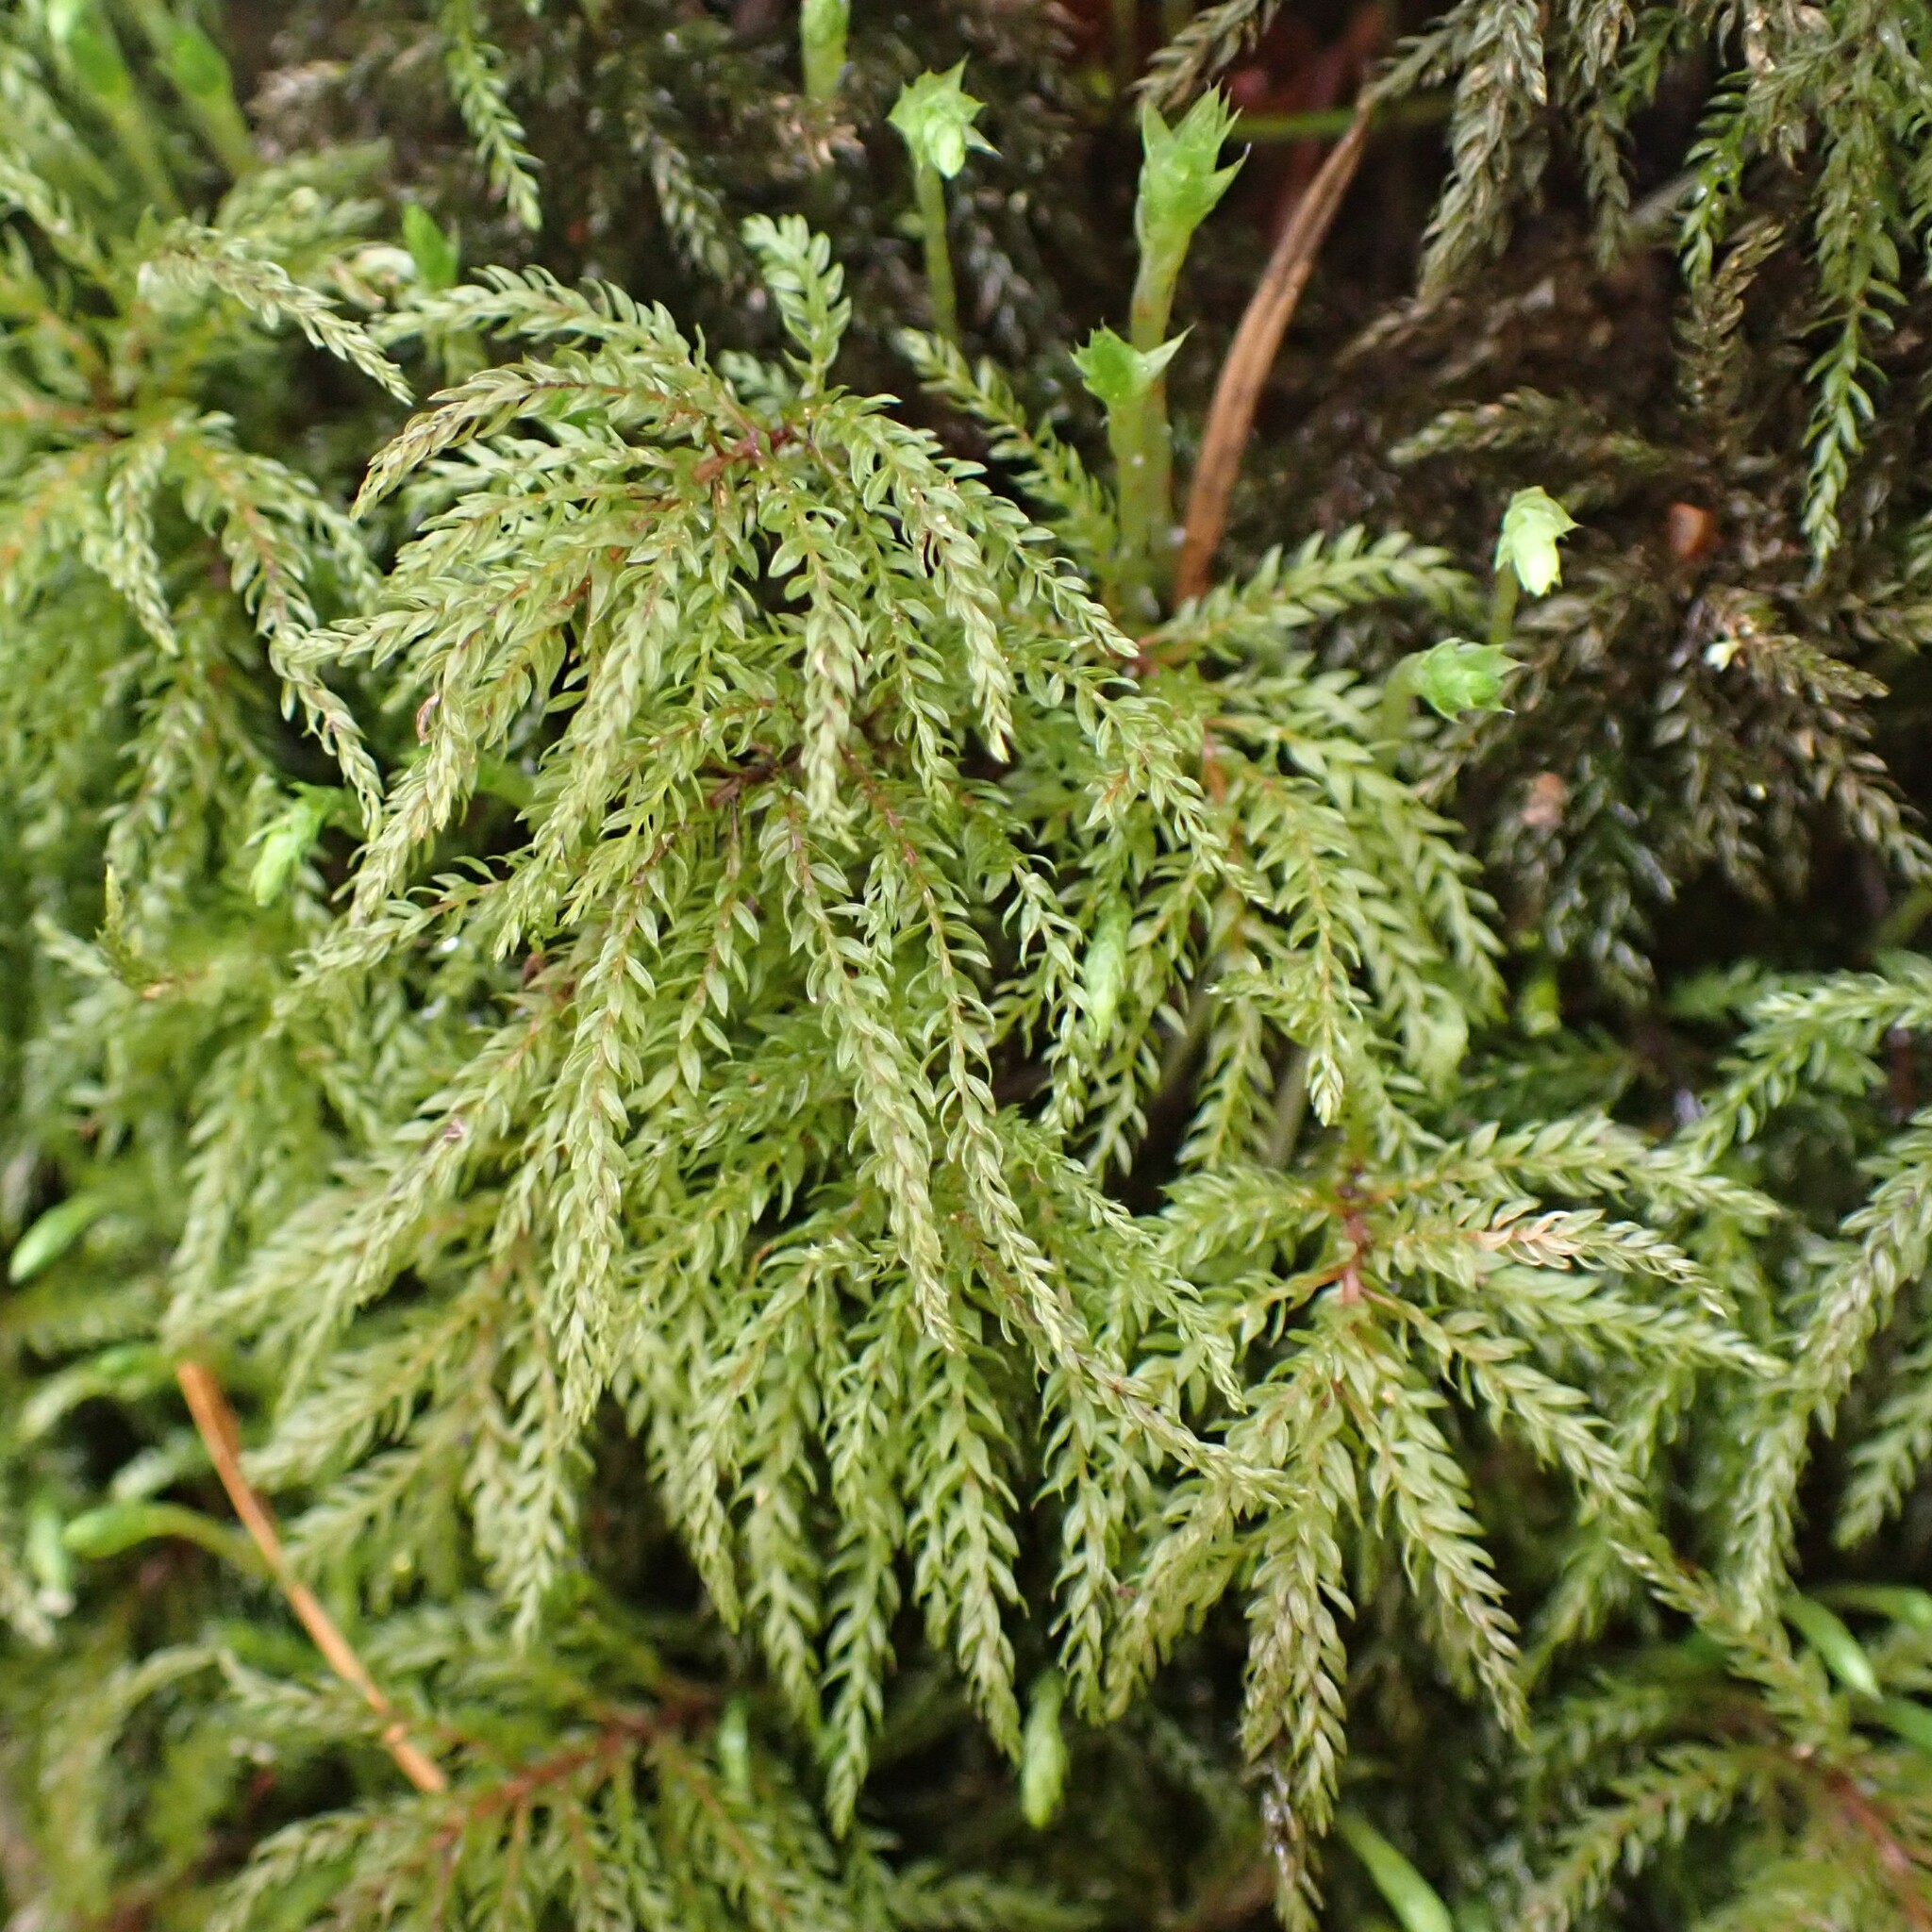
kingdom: Plantae
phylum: Bryophyta
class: Bryopsida
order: Bryales
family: Mniaceae
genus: Leucolepis
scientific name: Leucolepis acanthoneura
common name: Leucolepis umbrella moss
